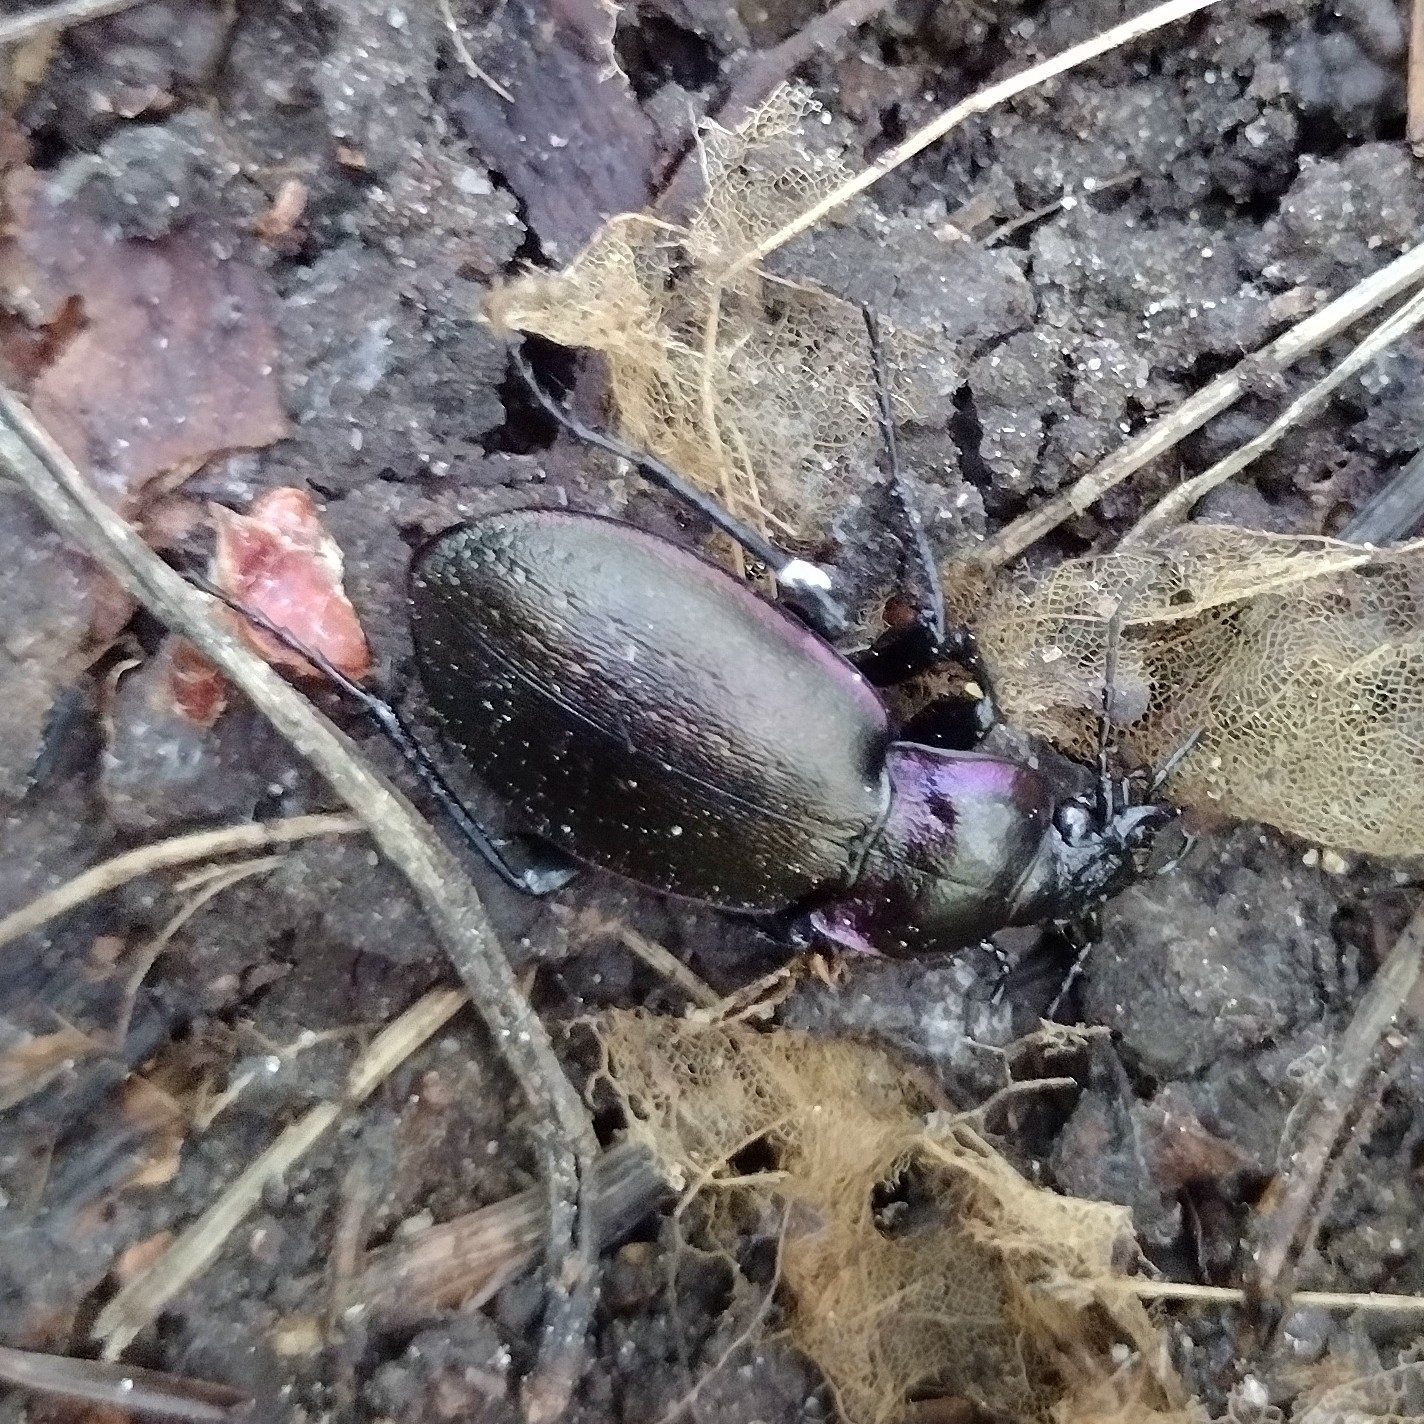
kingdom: Animalia
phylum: Arthropoda
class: Insecta
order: Coleoptera
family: Carabidae
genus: Carabus
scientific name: Carabus nemoralis
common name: European ground beetle
